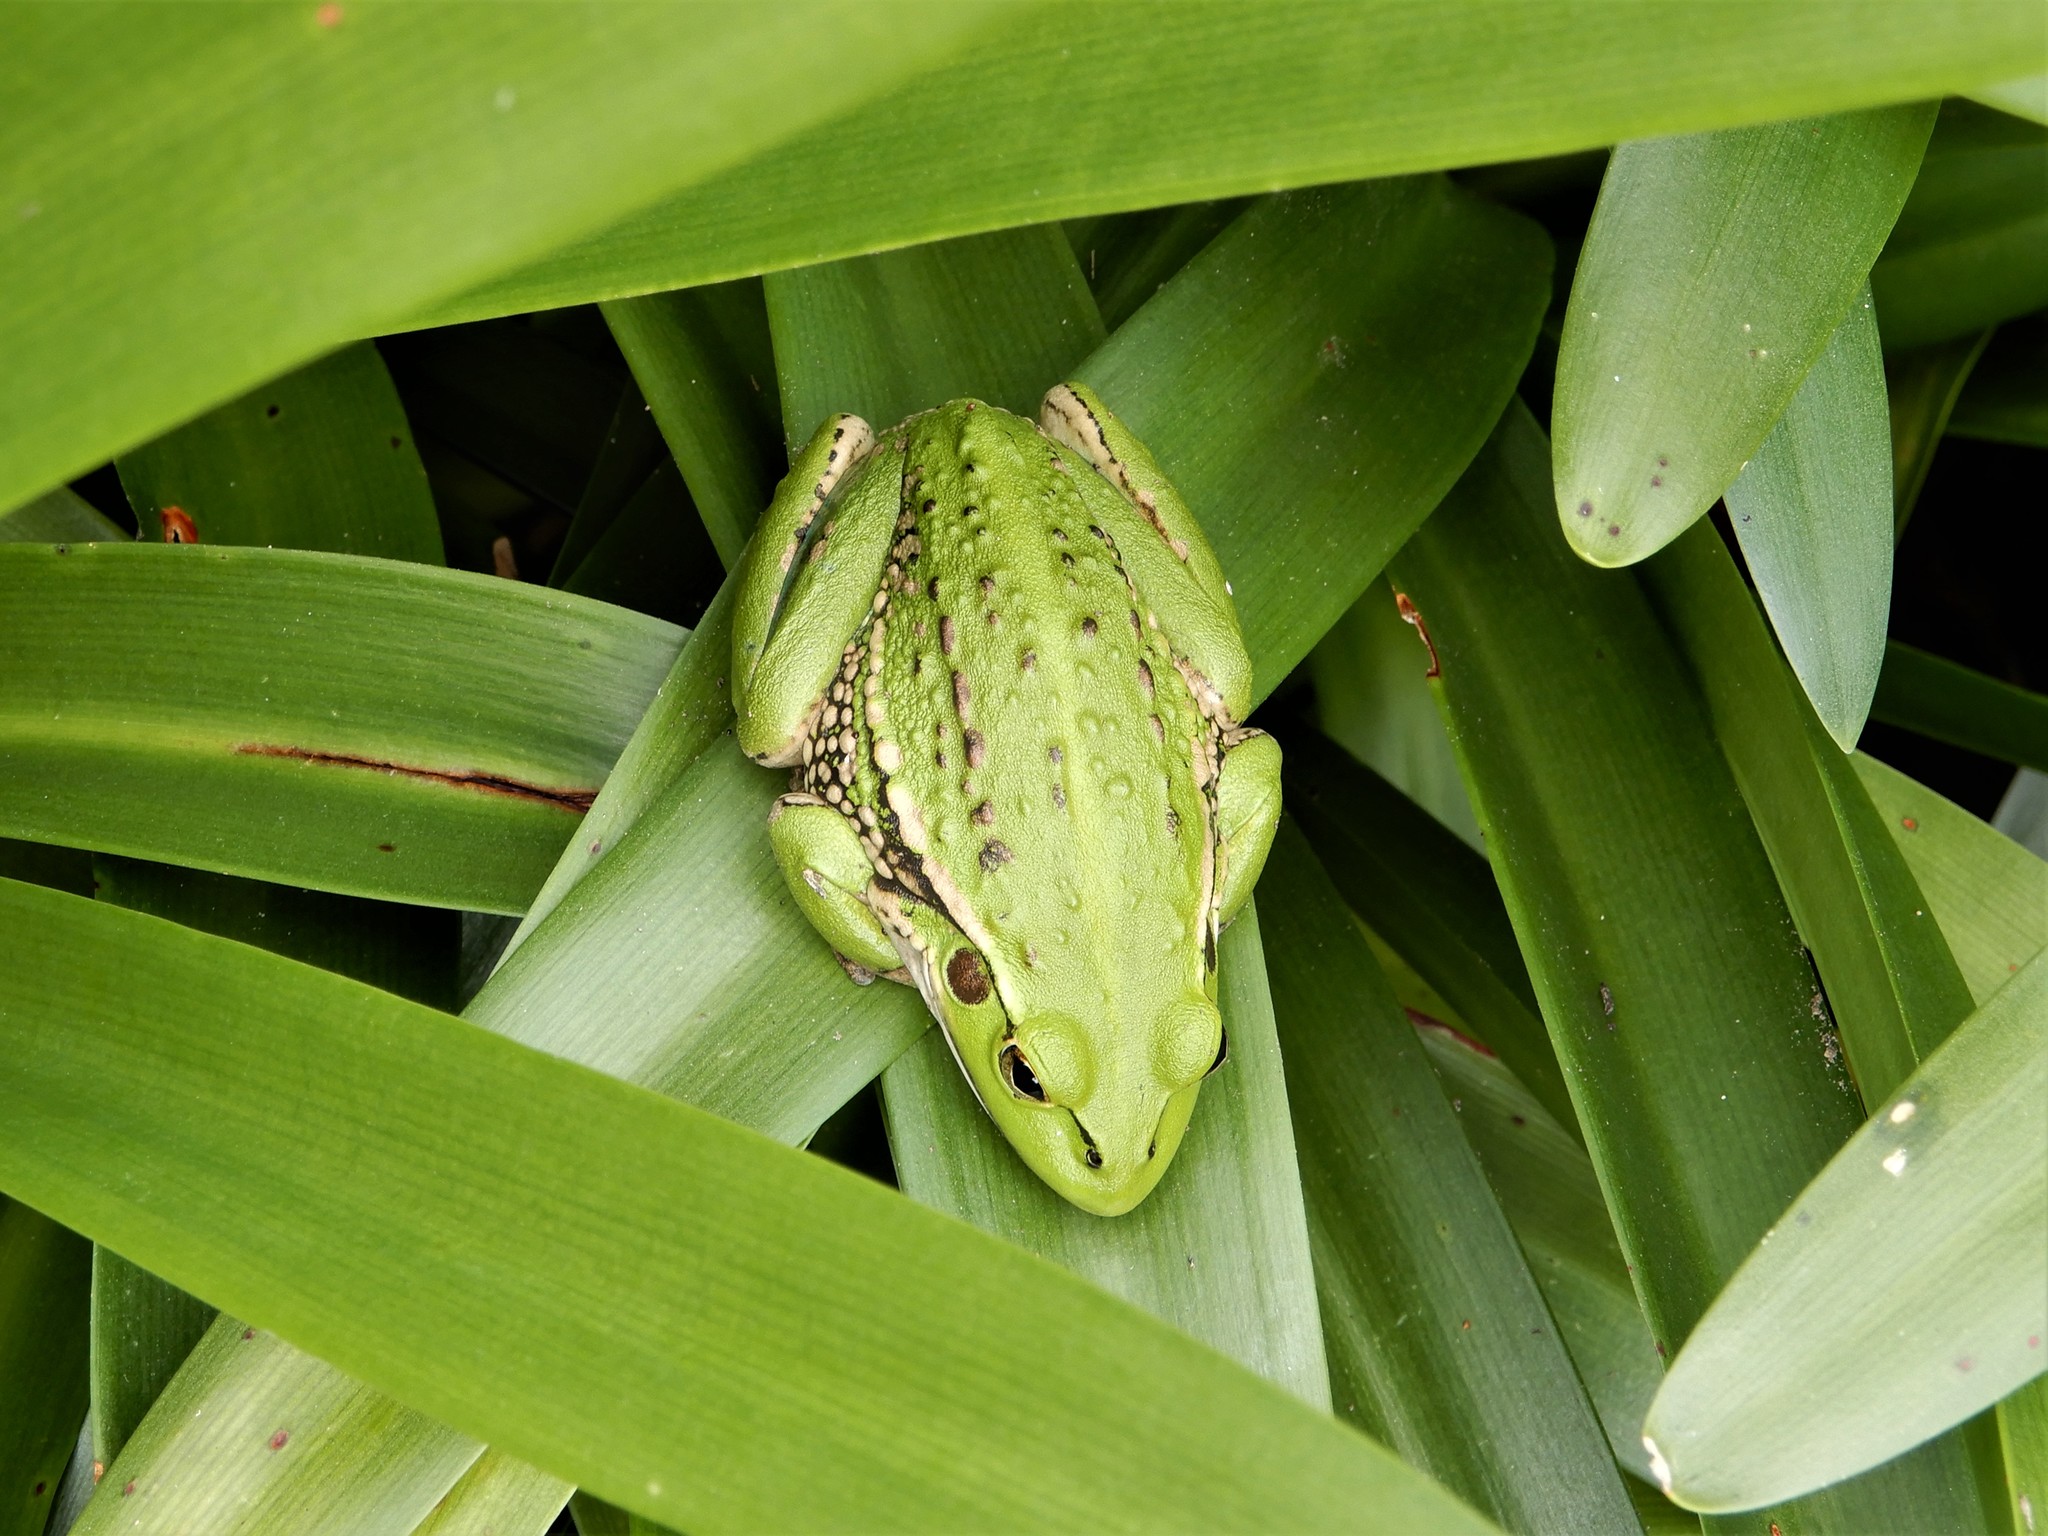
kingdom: Animalia
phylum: Chordata
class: Amphibia
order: Anura
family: Pelodryadidae
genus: Ranoidea
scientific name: Ranoidea raniformis
